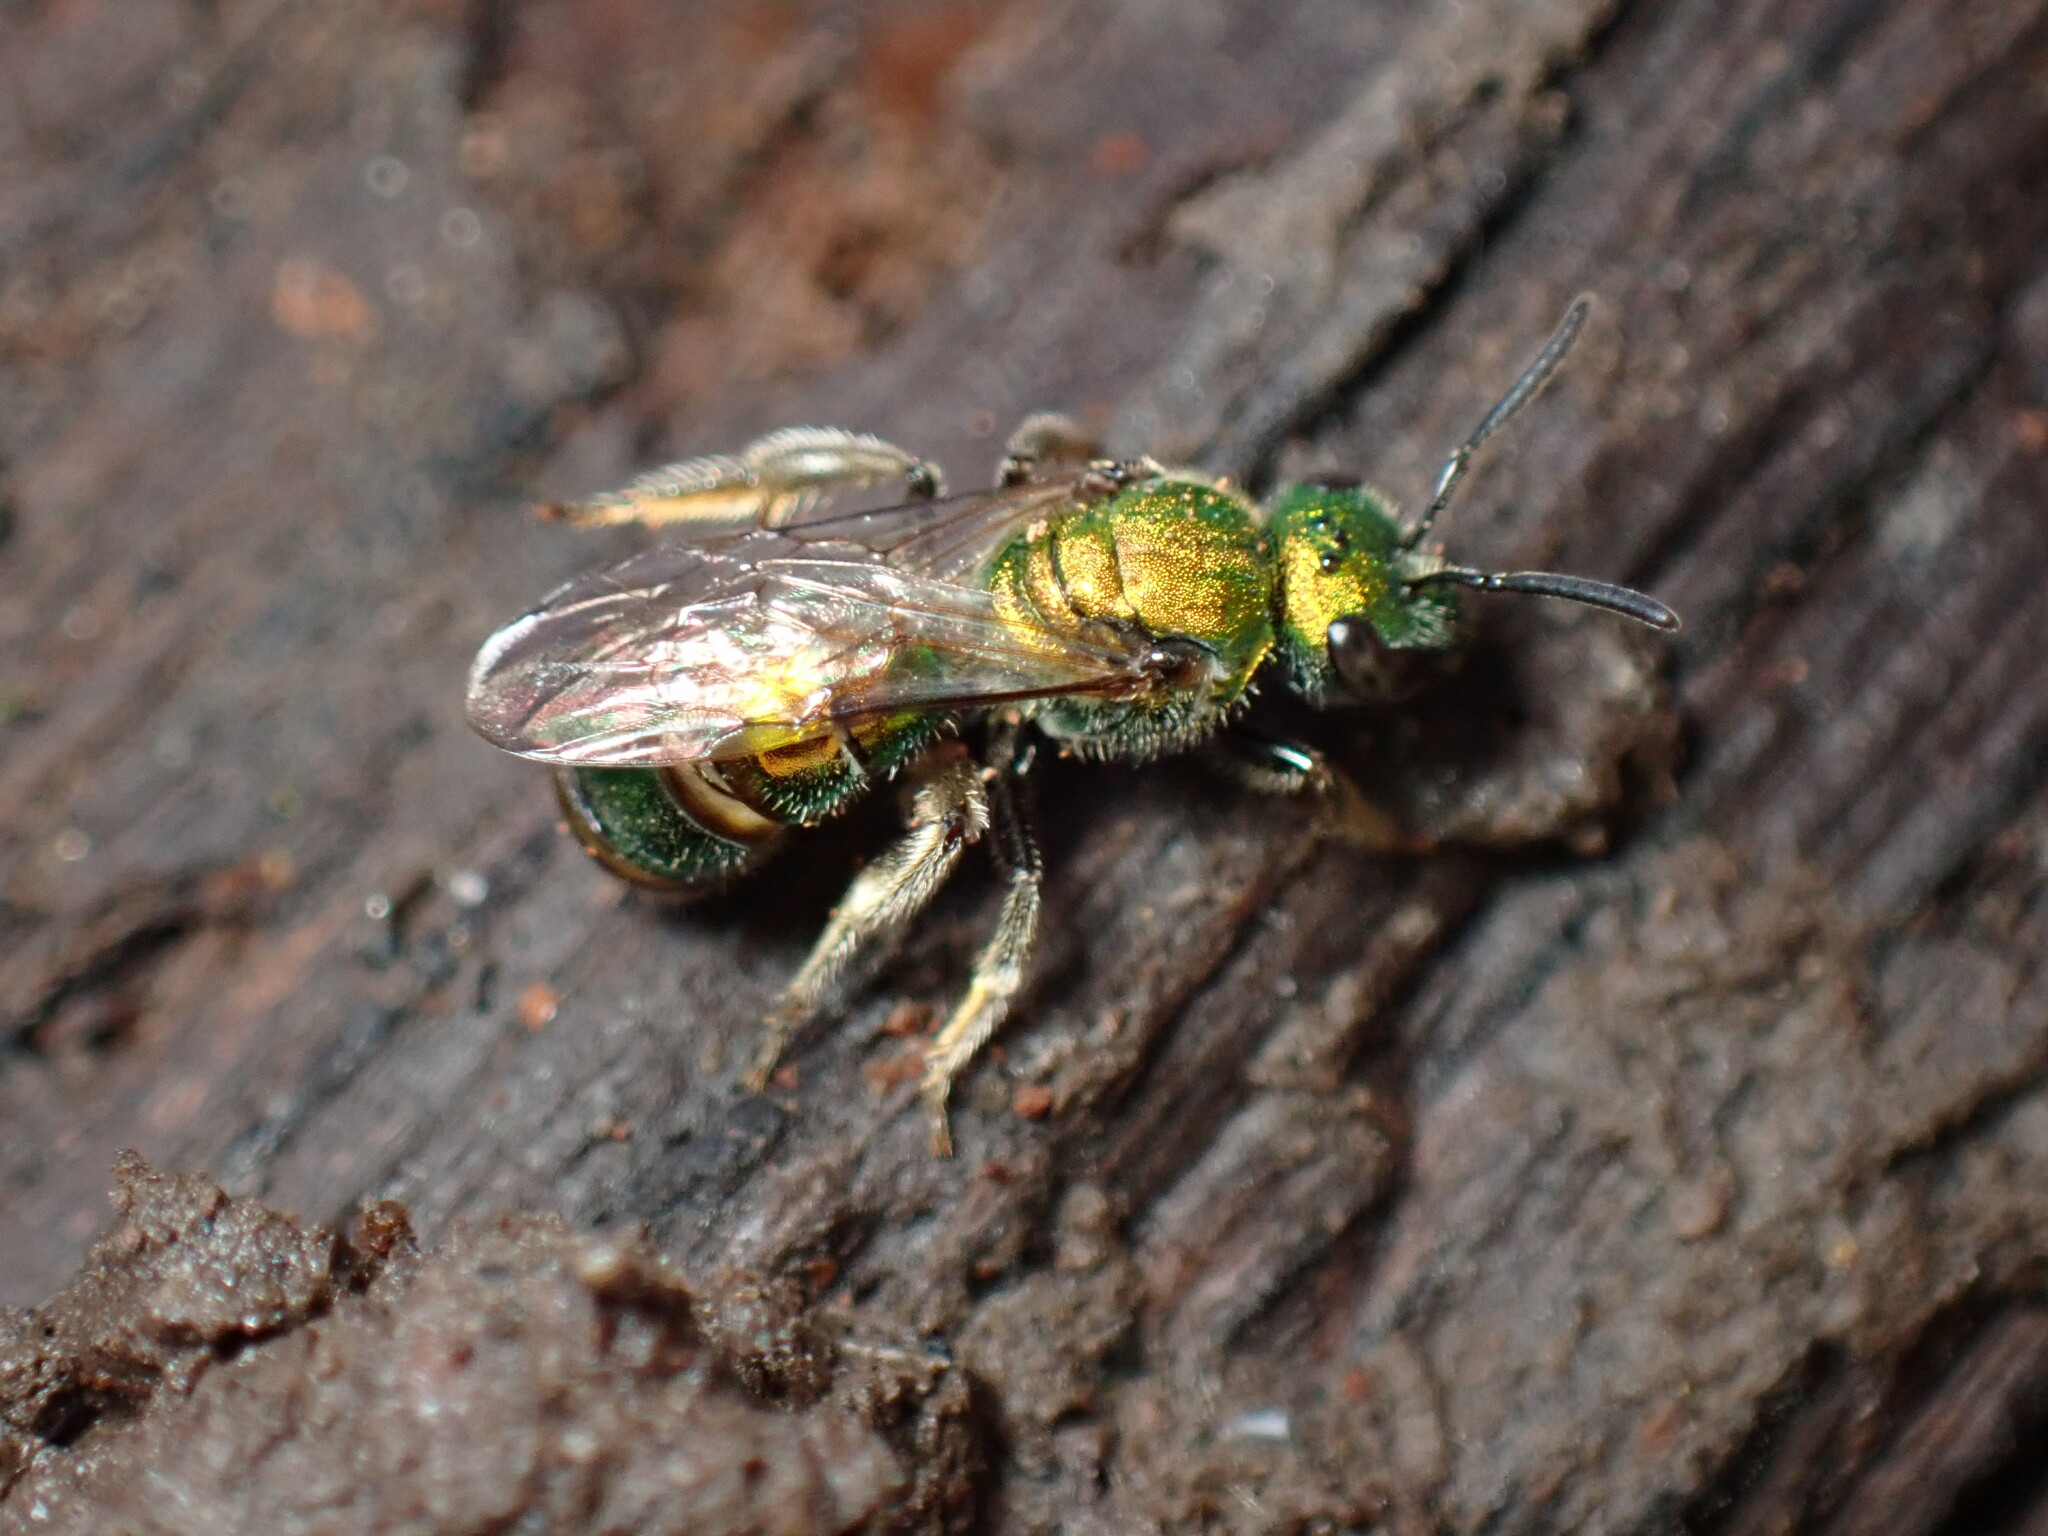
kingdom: Animalia
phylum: Arthropoda
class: Insecta
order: Hymenoptera
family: Halictidae
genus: Augochlora
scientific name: Augochlora pura
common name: Pure green sweat bee
